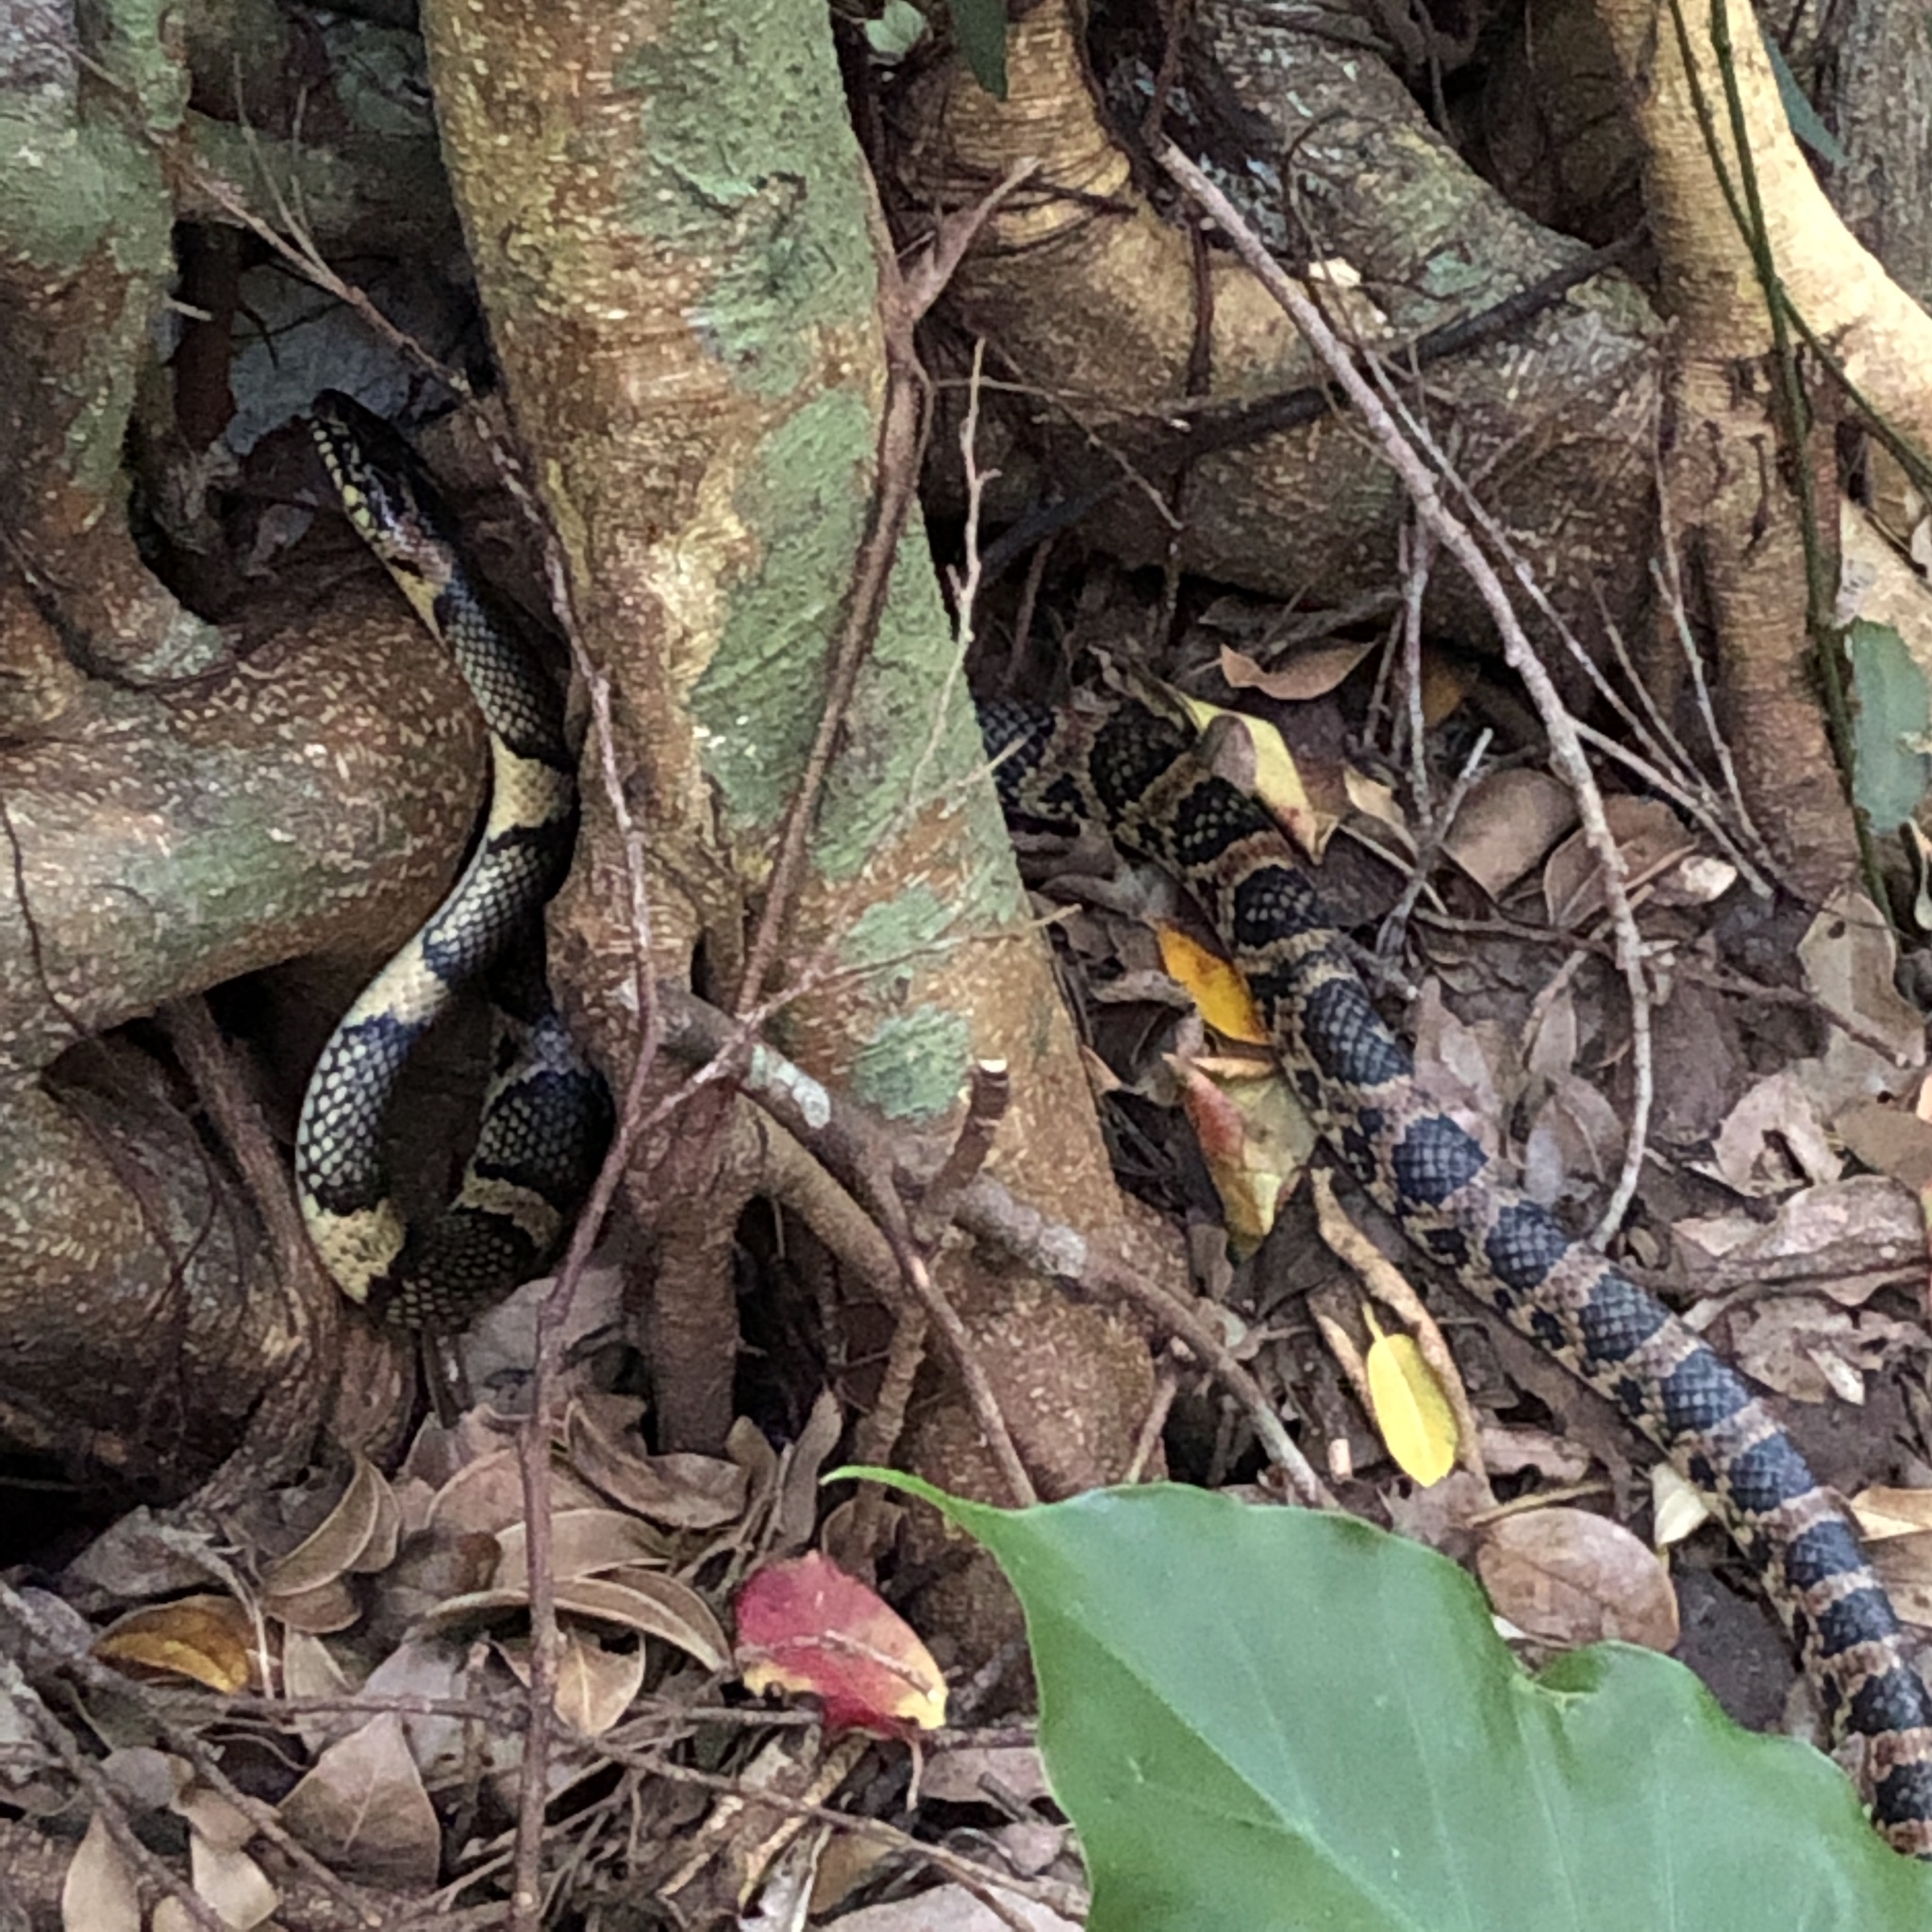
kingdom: Animalia
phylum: Chordata
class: Squamata
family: Colubridae
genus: Lycodon
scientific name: Lycodon semicarinatus
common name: Loo-choo big-tooth snake
